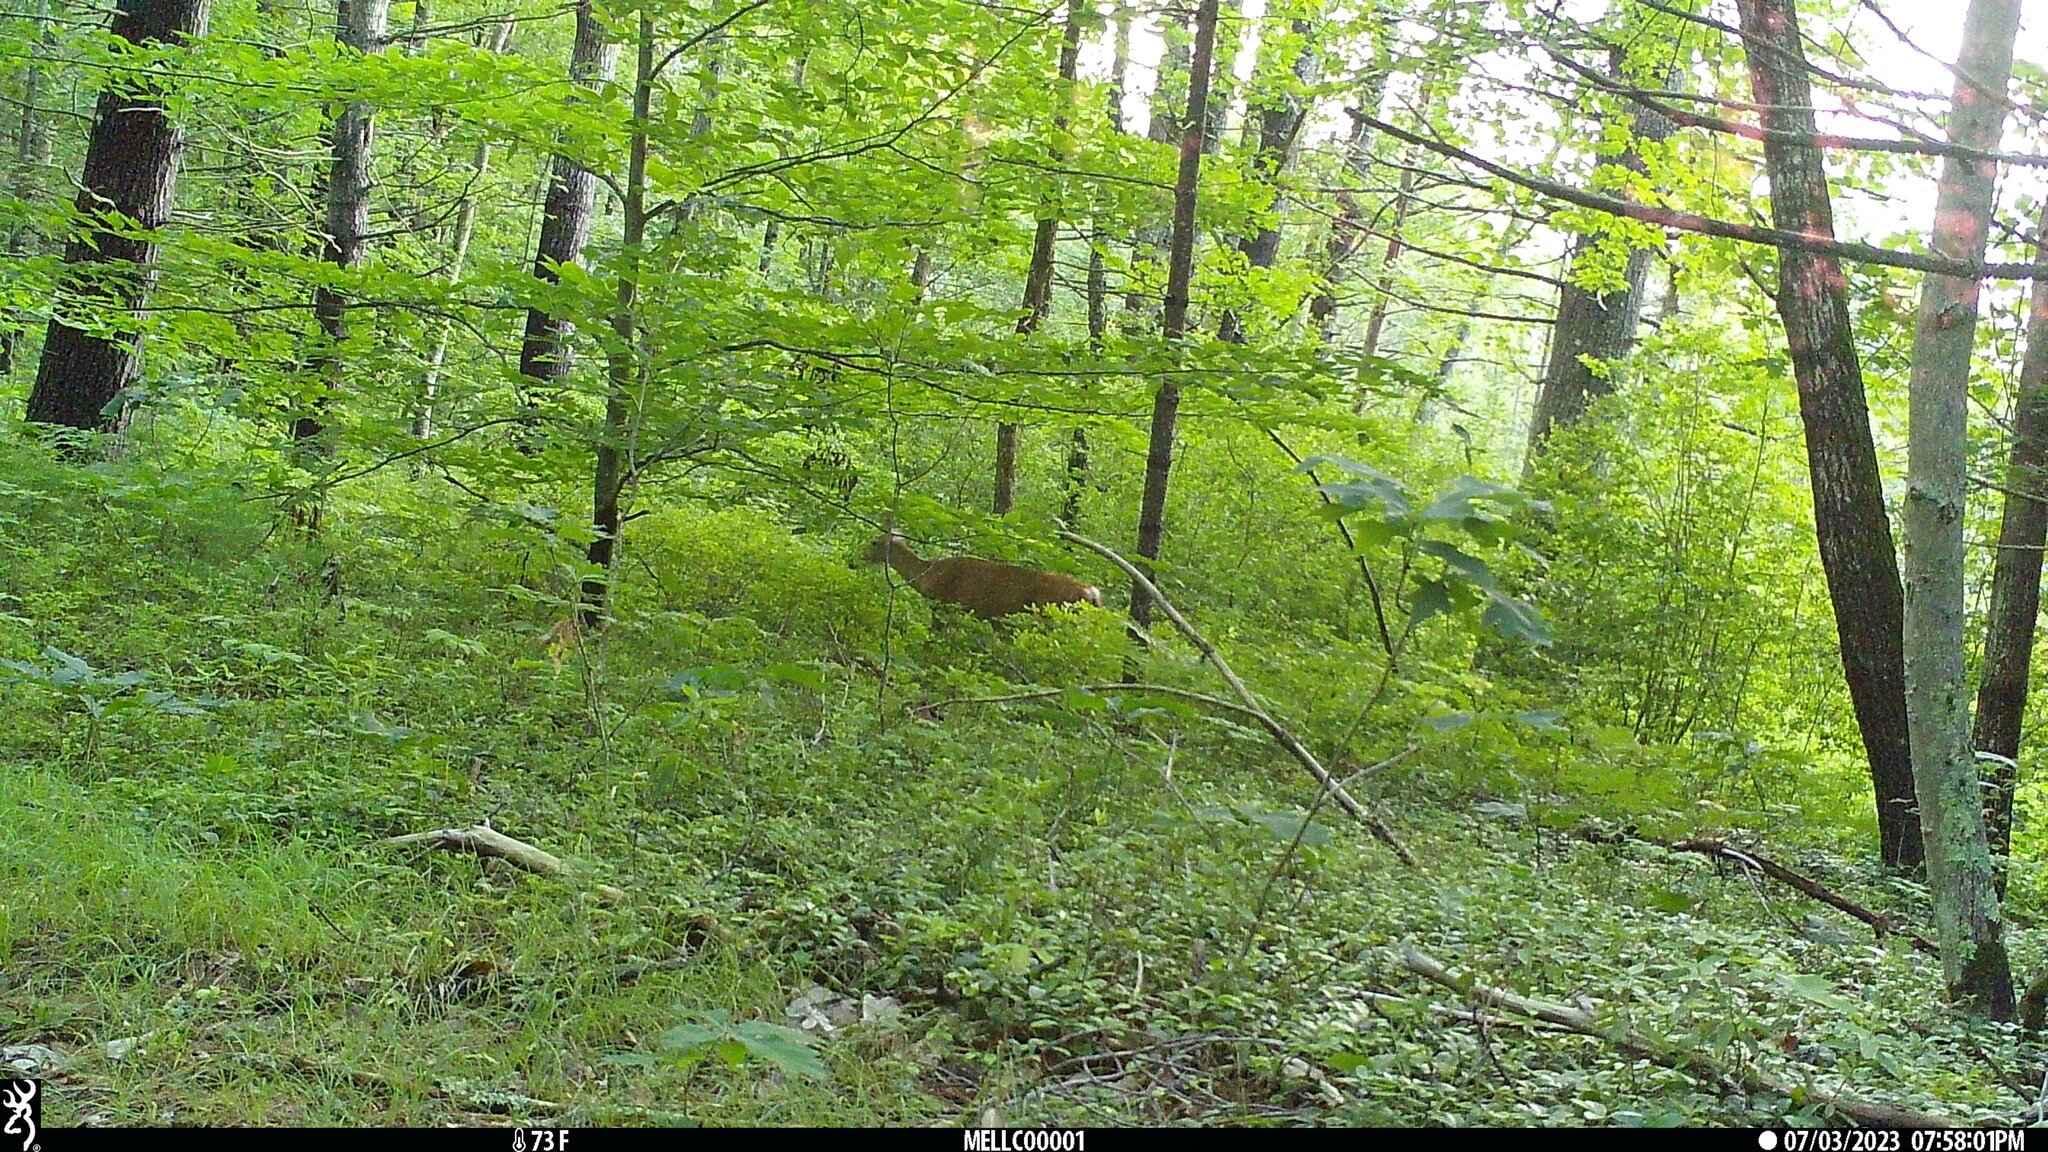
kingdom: Animalia
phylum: Chordata
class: Mammalia
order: Artiodactyla
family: Cervidae
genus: Odocoileus
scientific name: Odocoileus virginianus
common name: White-tailed deer
